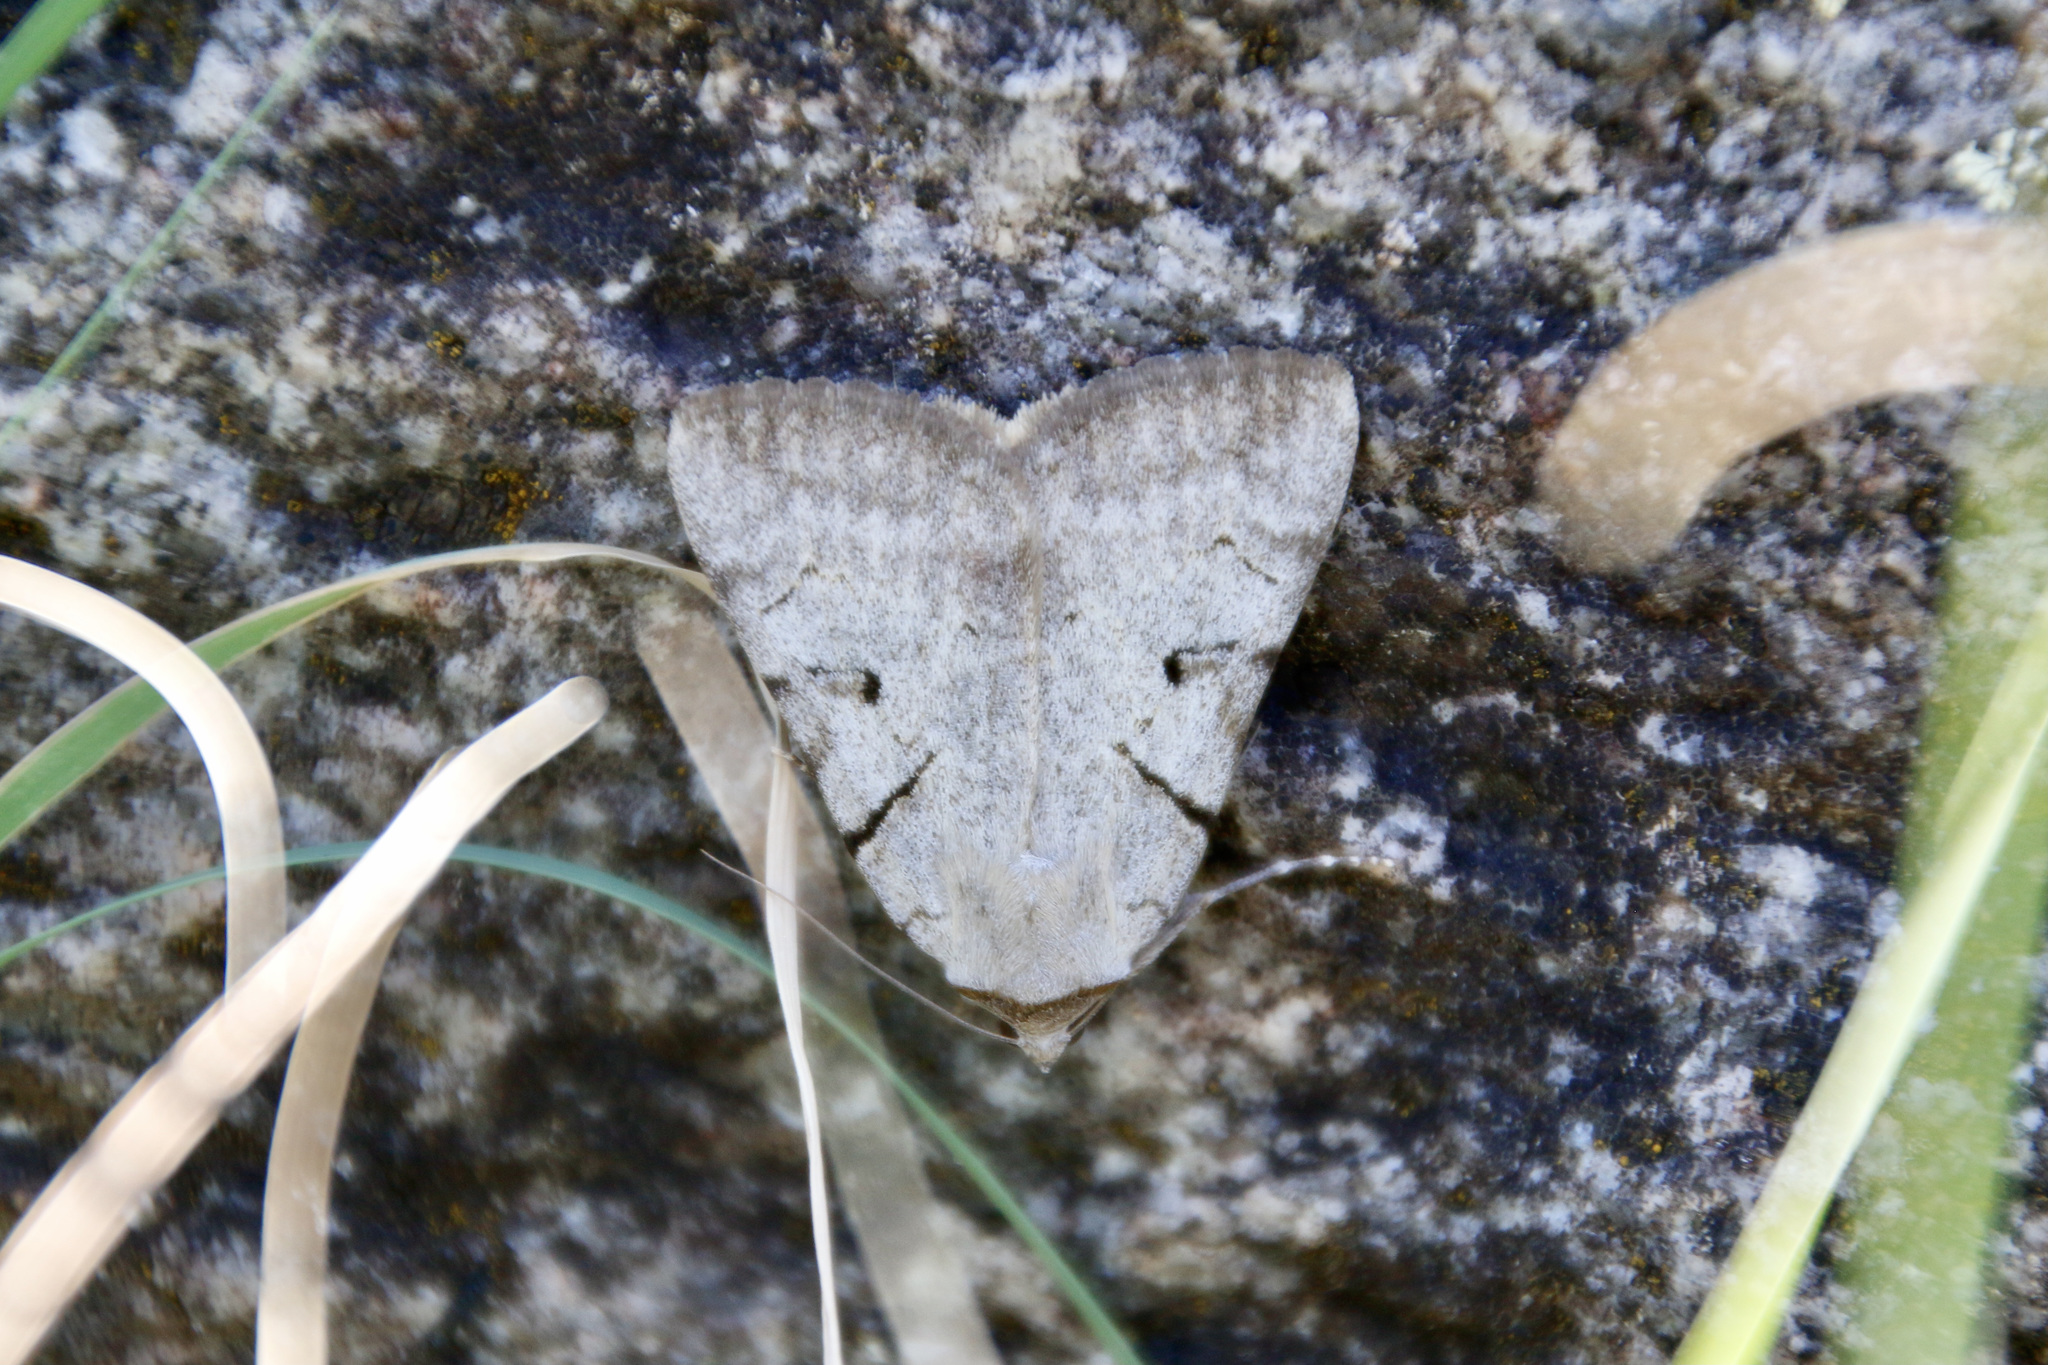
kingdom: Animalia
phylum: Arthropoda
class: Insecta
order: Lepidoptera
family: Erebidae
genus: Catocala
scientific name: Catocala abbreviatella
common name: Abbreviated underwing
